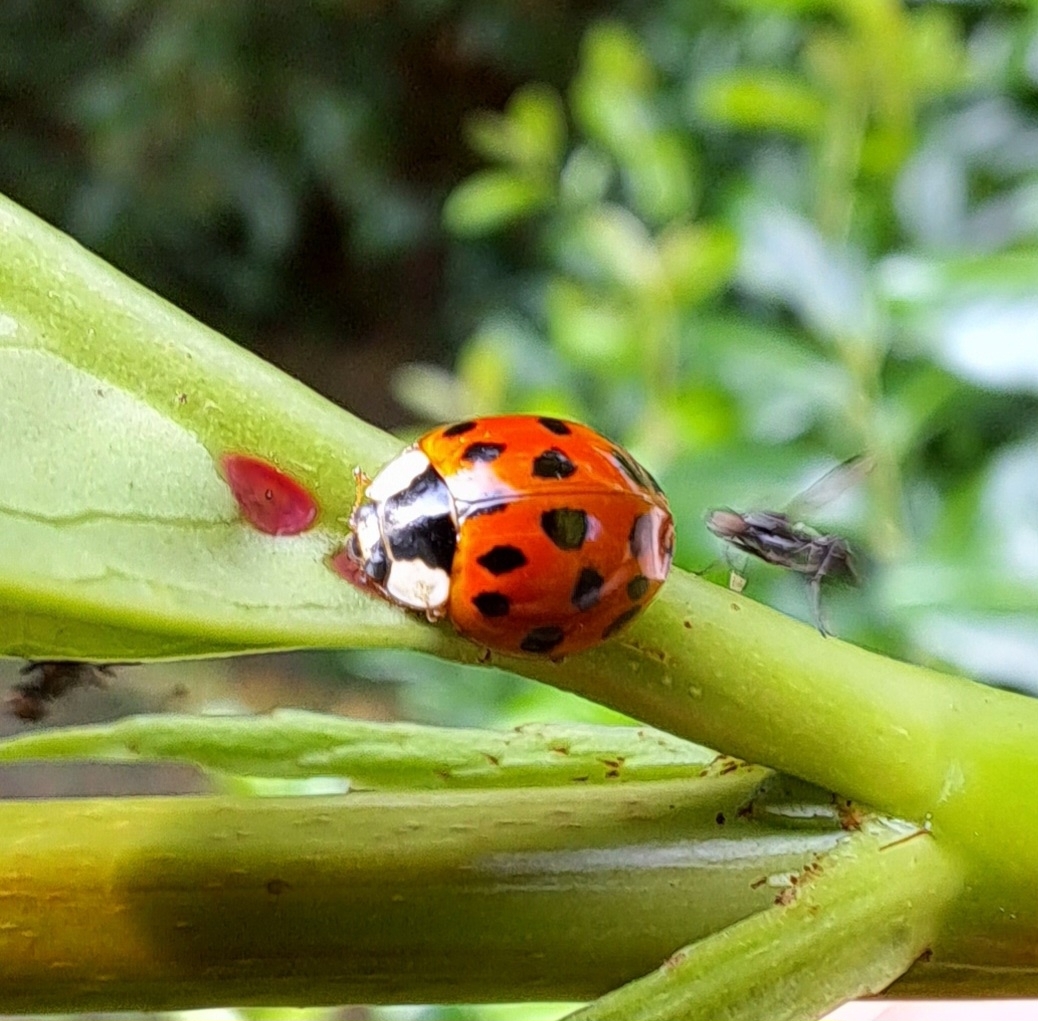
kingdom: Animalia
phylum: Arthropoda
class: Insecta
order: Coleoptera
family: Coccinellidae
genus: Harmonia
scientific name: Harmonia axyridis
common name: Harlequin ladybird
